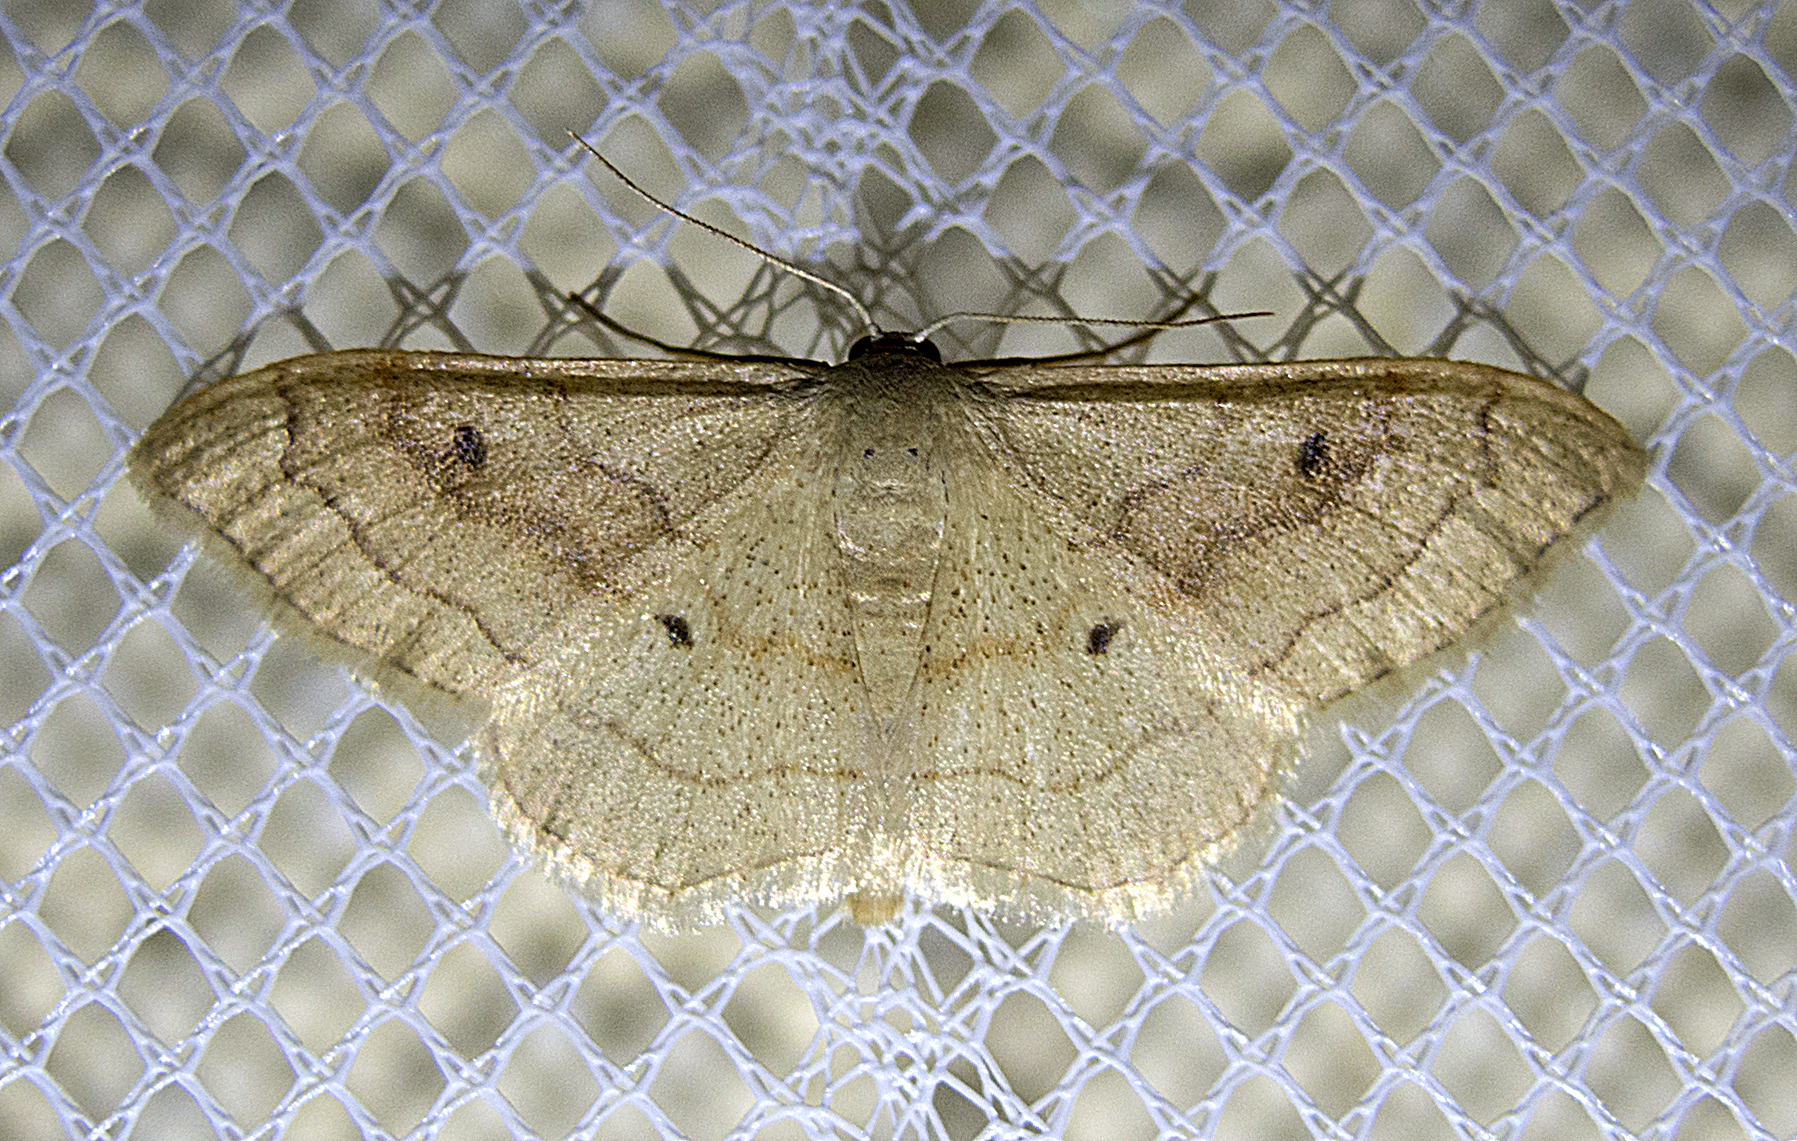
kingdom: Animalia
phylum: Arthropoda
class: Insecta
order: Lepidoptera
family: Geometridae
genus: Idaea
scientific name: Idaea bilinearia
